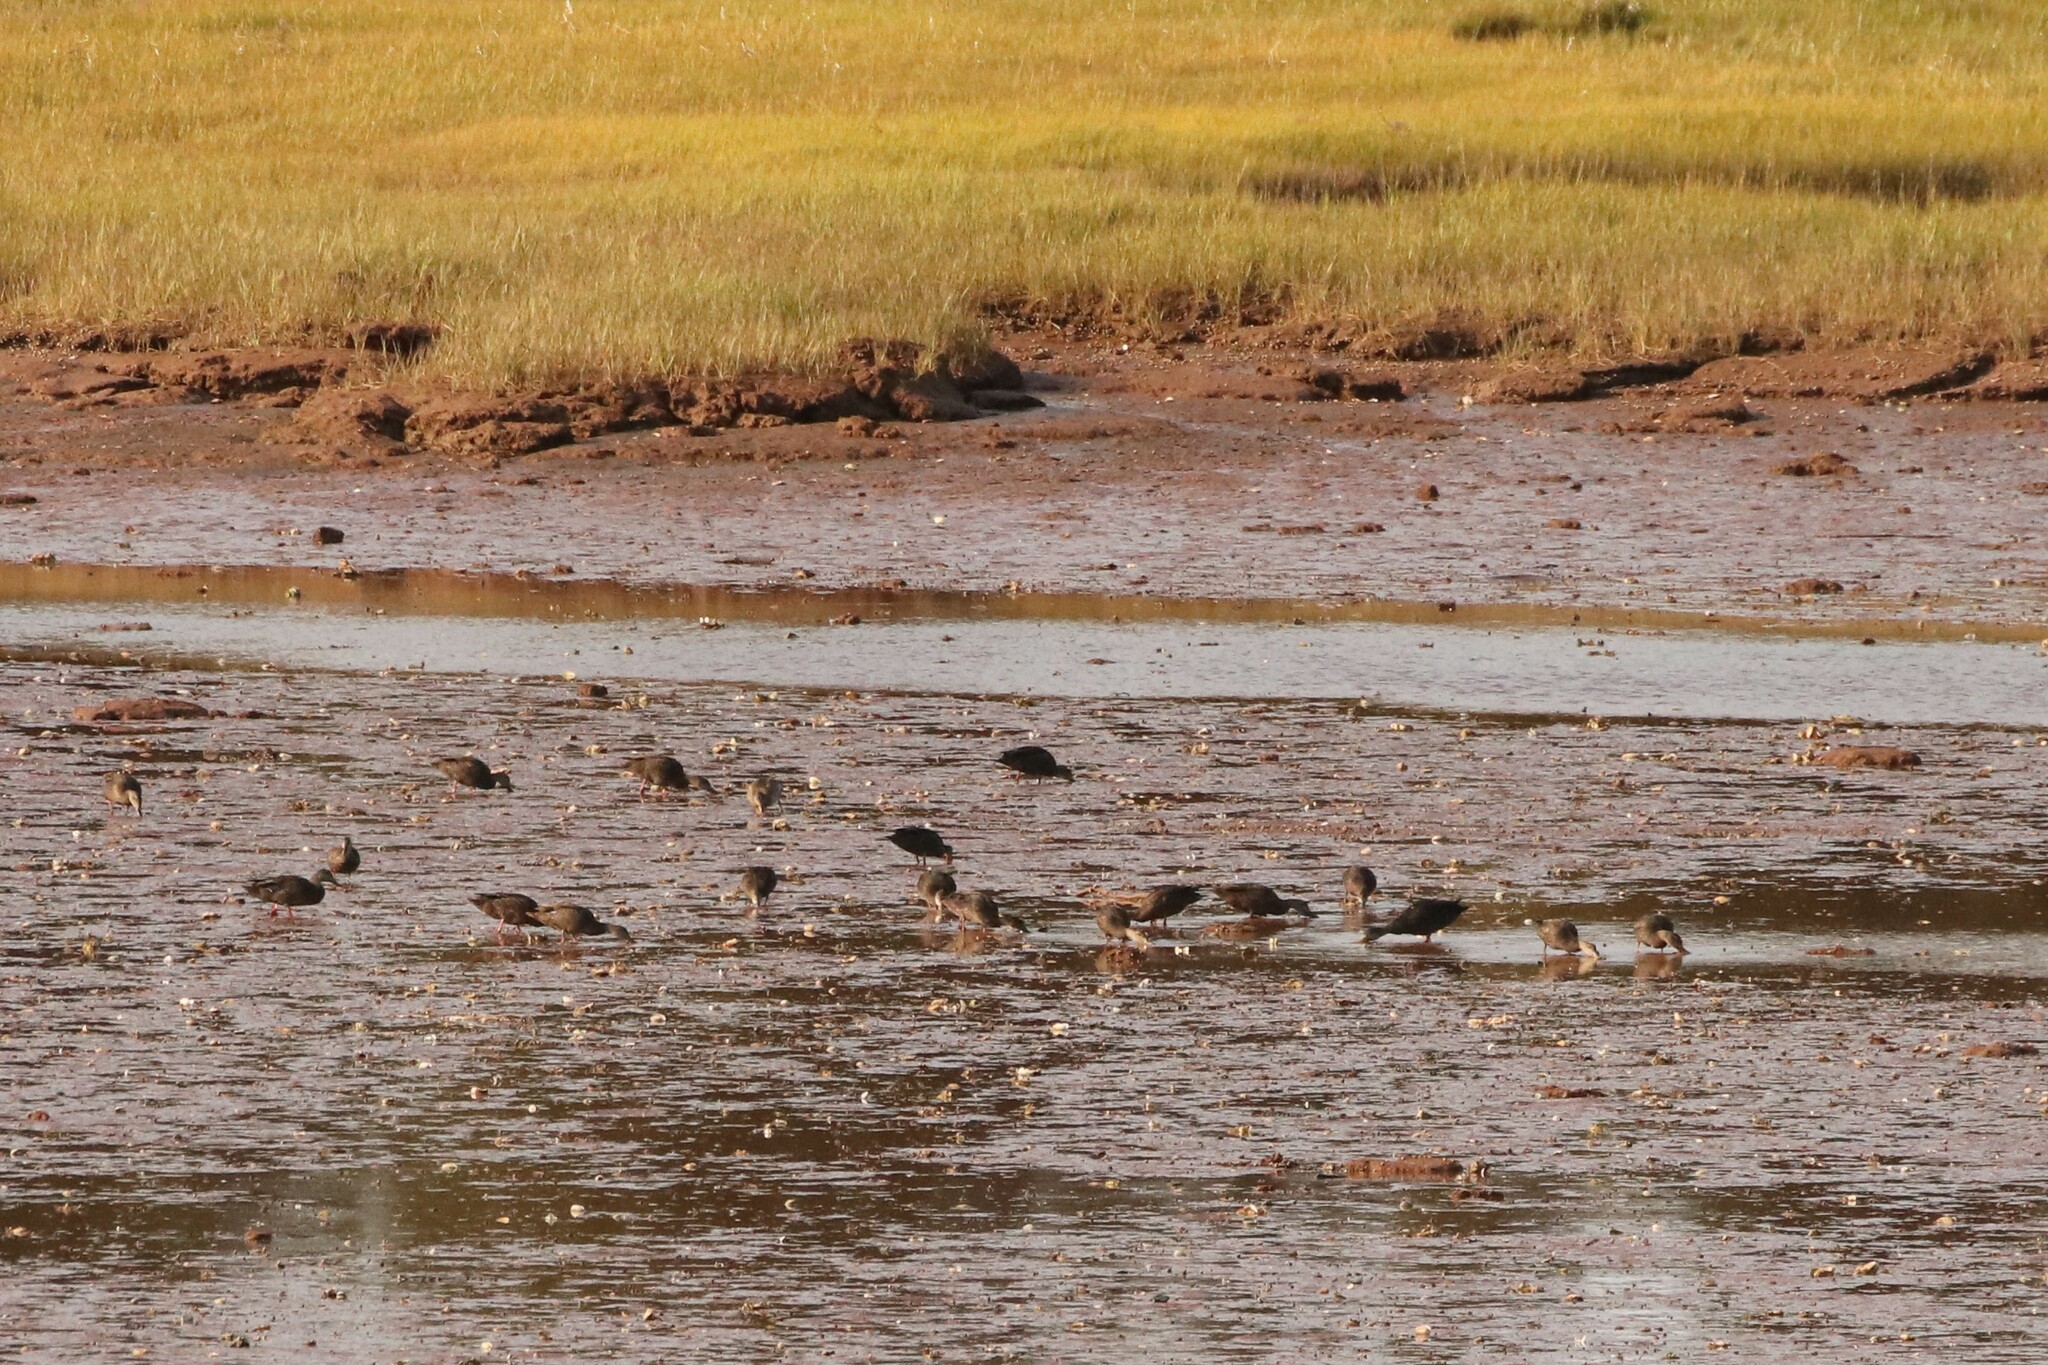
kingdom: Animalia
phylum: Chordata
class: Aves
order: Anseriformes
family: Anatidae
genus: Anas
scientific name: Anas rubripes
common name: American black duck
